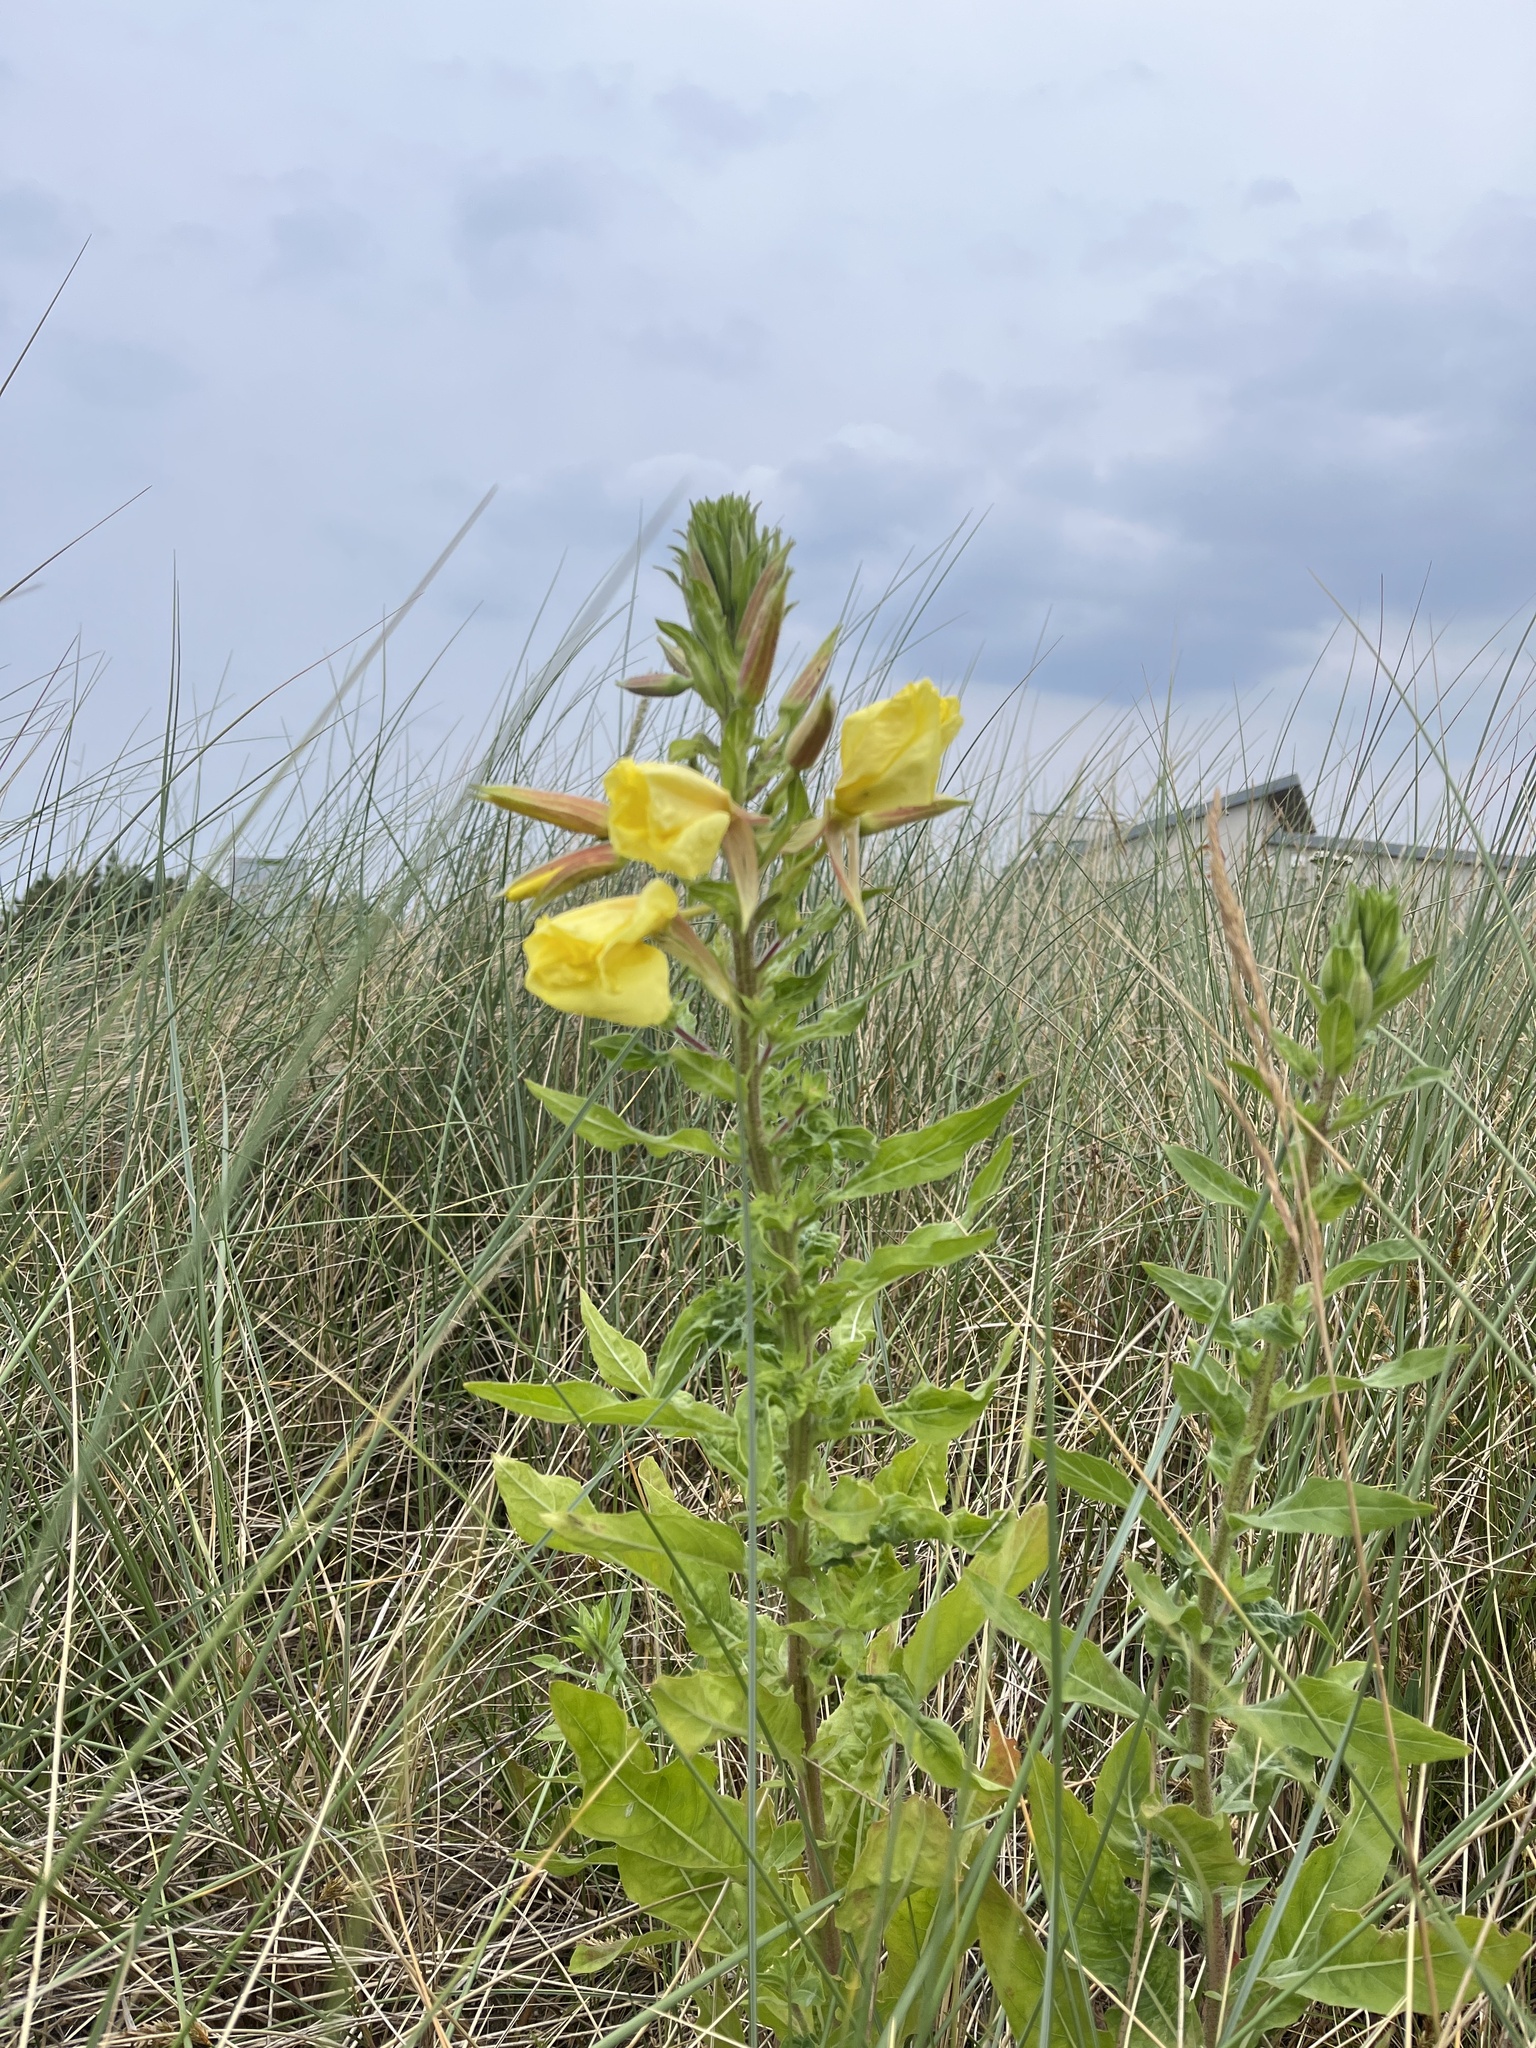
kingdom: Plantae
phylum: Tracheophyta
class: Magnoliopsida
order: Myrtales
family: Onagraceae
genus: Oenothera
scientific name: Oenothera glazioviana
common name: Large-flowered evening-primrose
